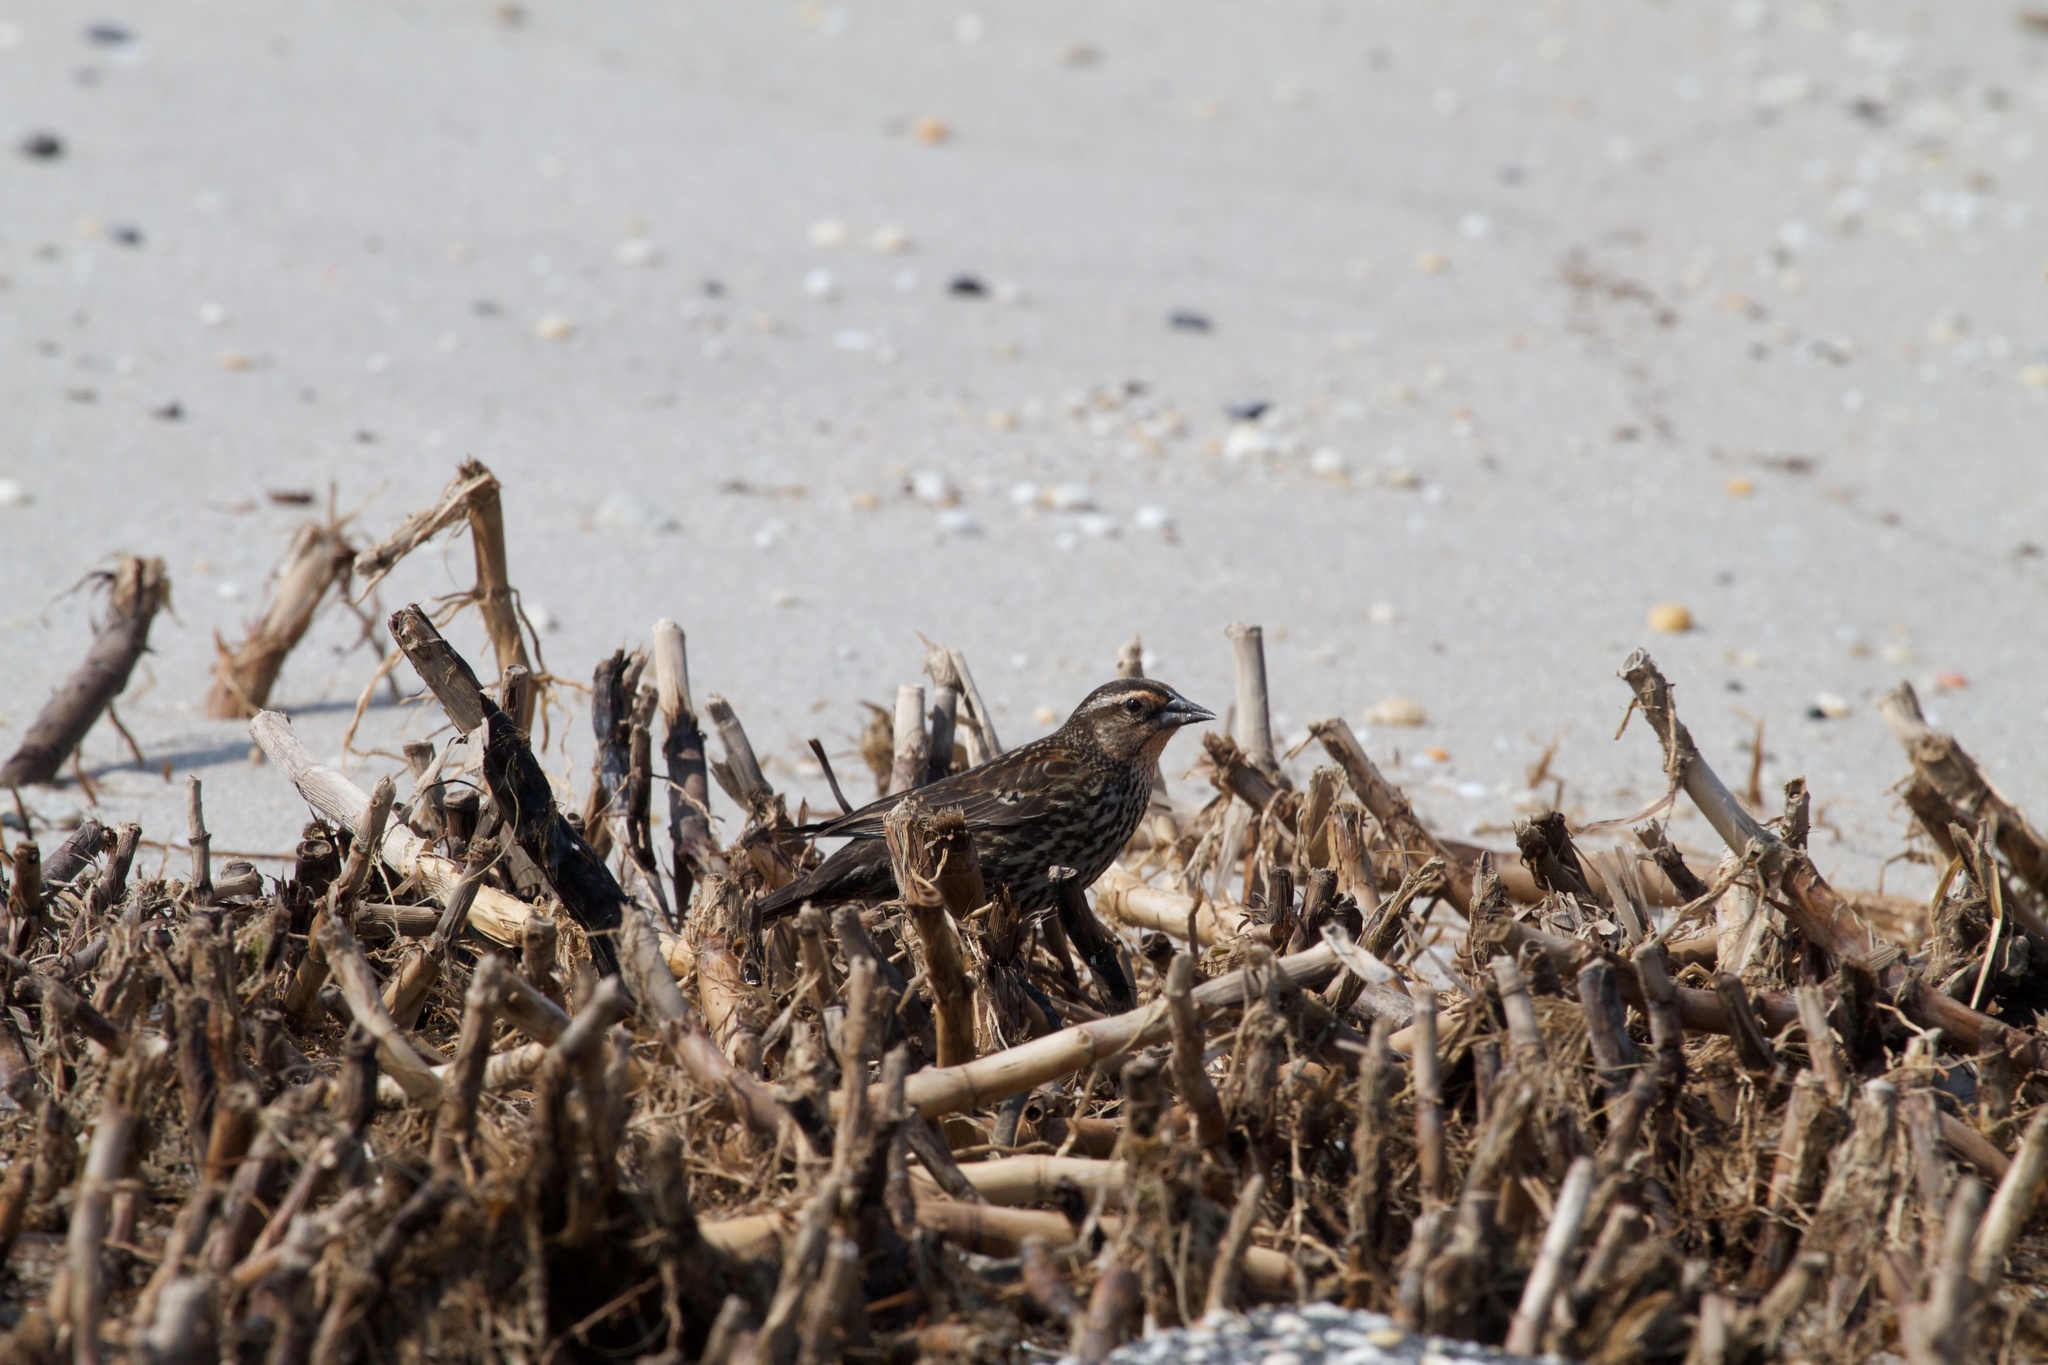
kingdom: Animalia
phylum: Chordata
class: Aves
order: Passeriformes
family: Icteridae
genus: Agelaius
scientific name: Agelaius phoeniceus
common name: Red-winged blackbird
